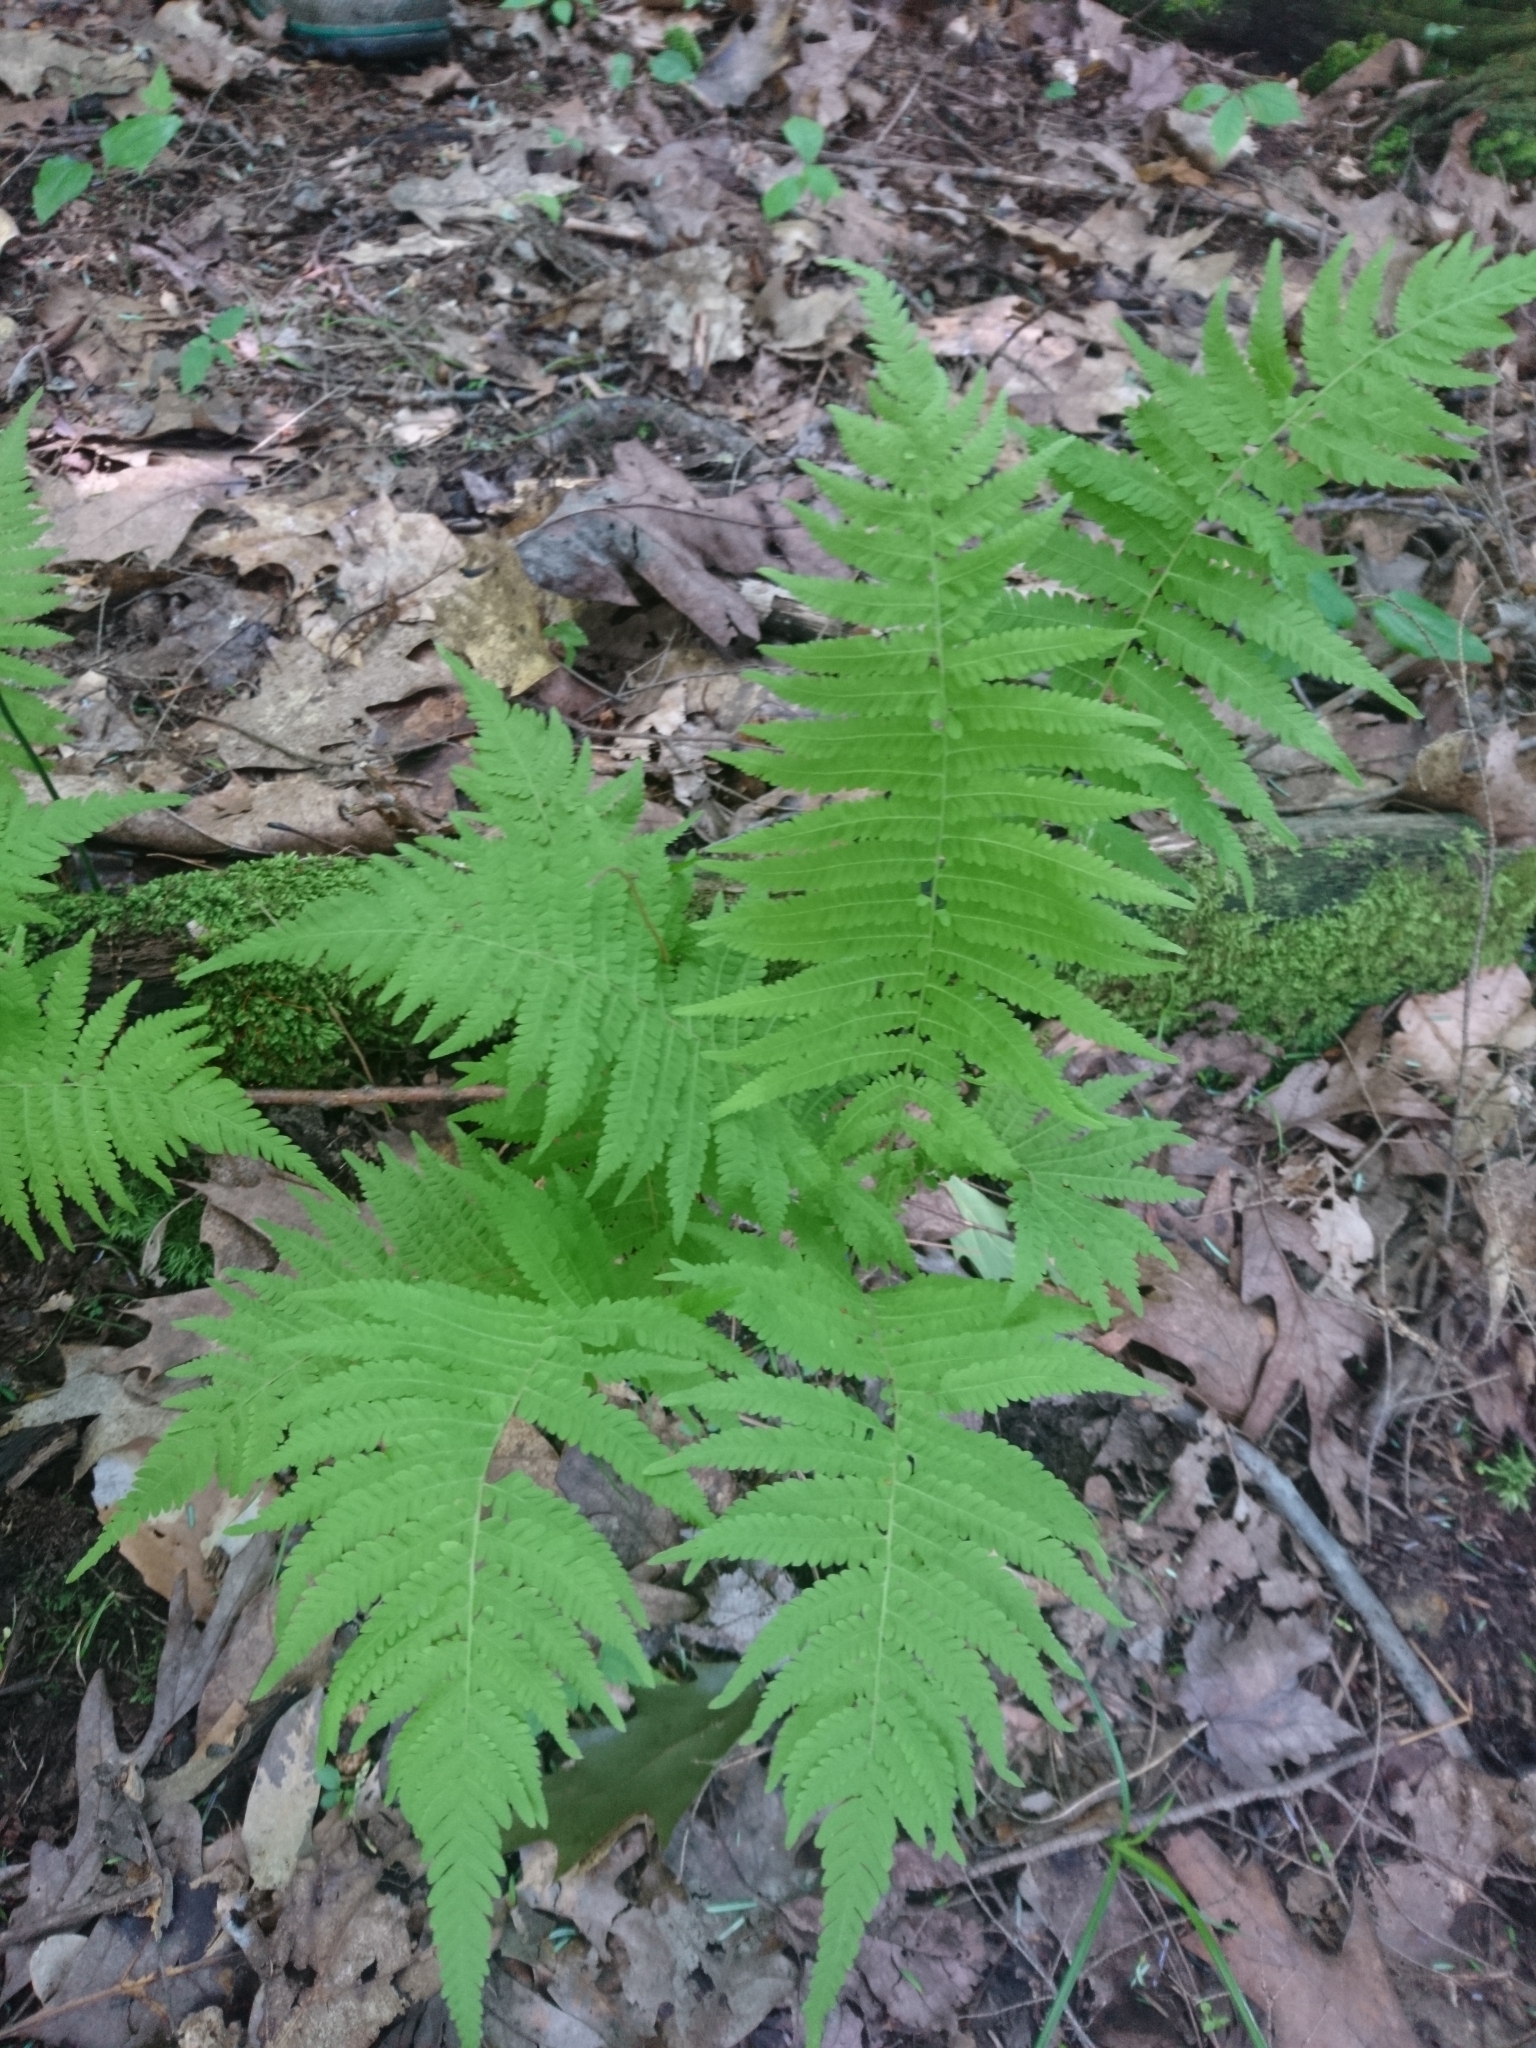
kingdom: Plantae
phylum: Tracheophyta
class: Polypodiopsida
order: Polypodiales
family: Thelypteridaceae
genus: Amauropelta
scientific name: Amauropelta noveboracensis
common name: New york fern
